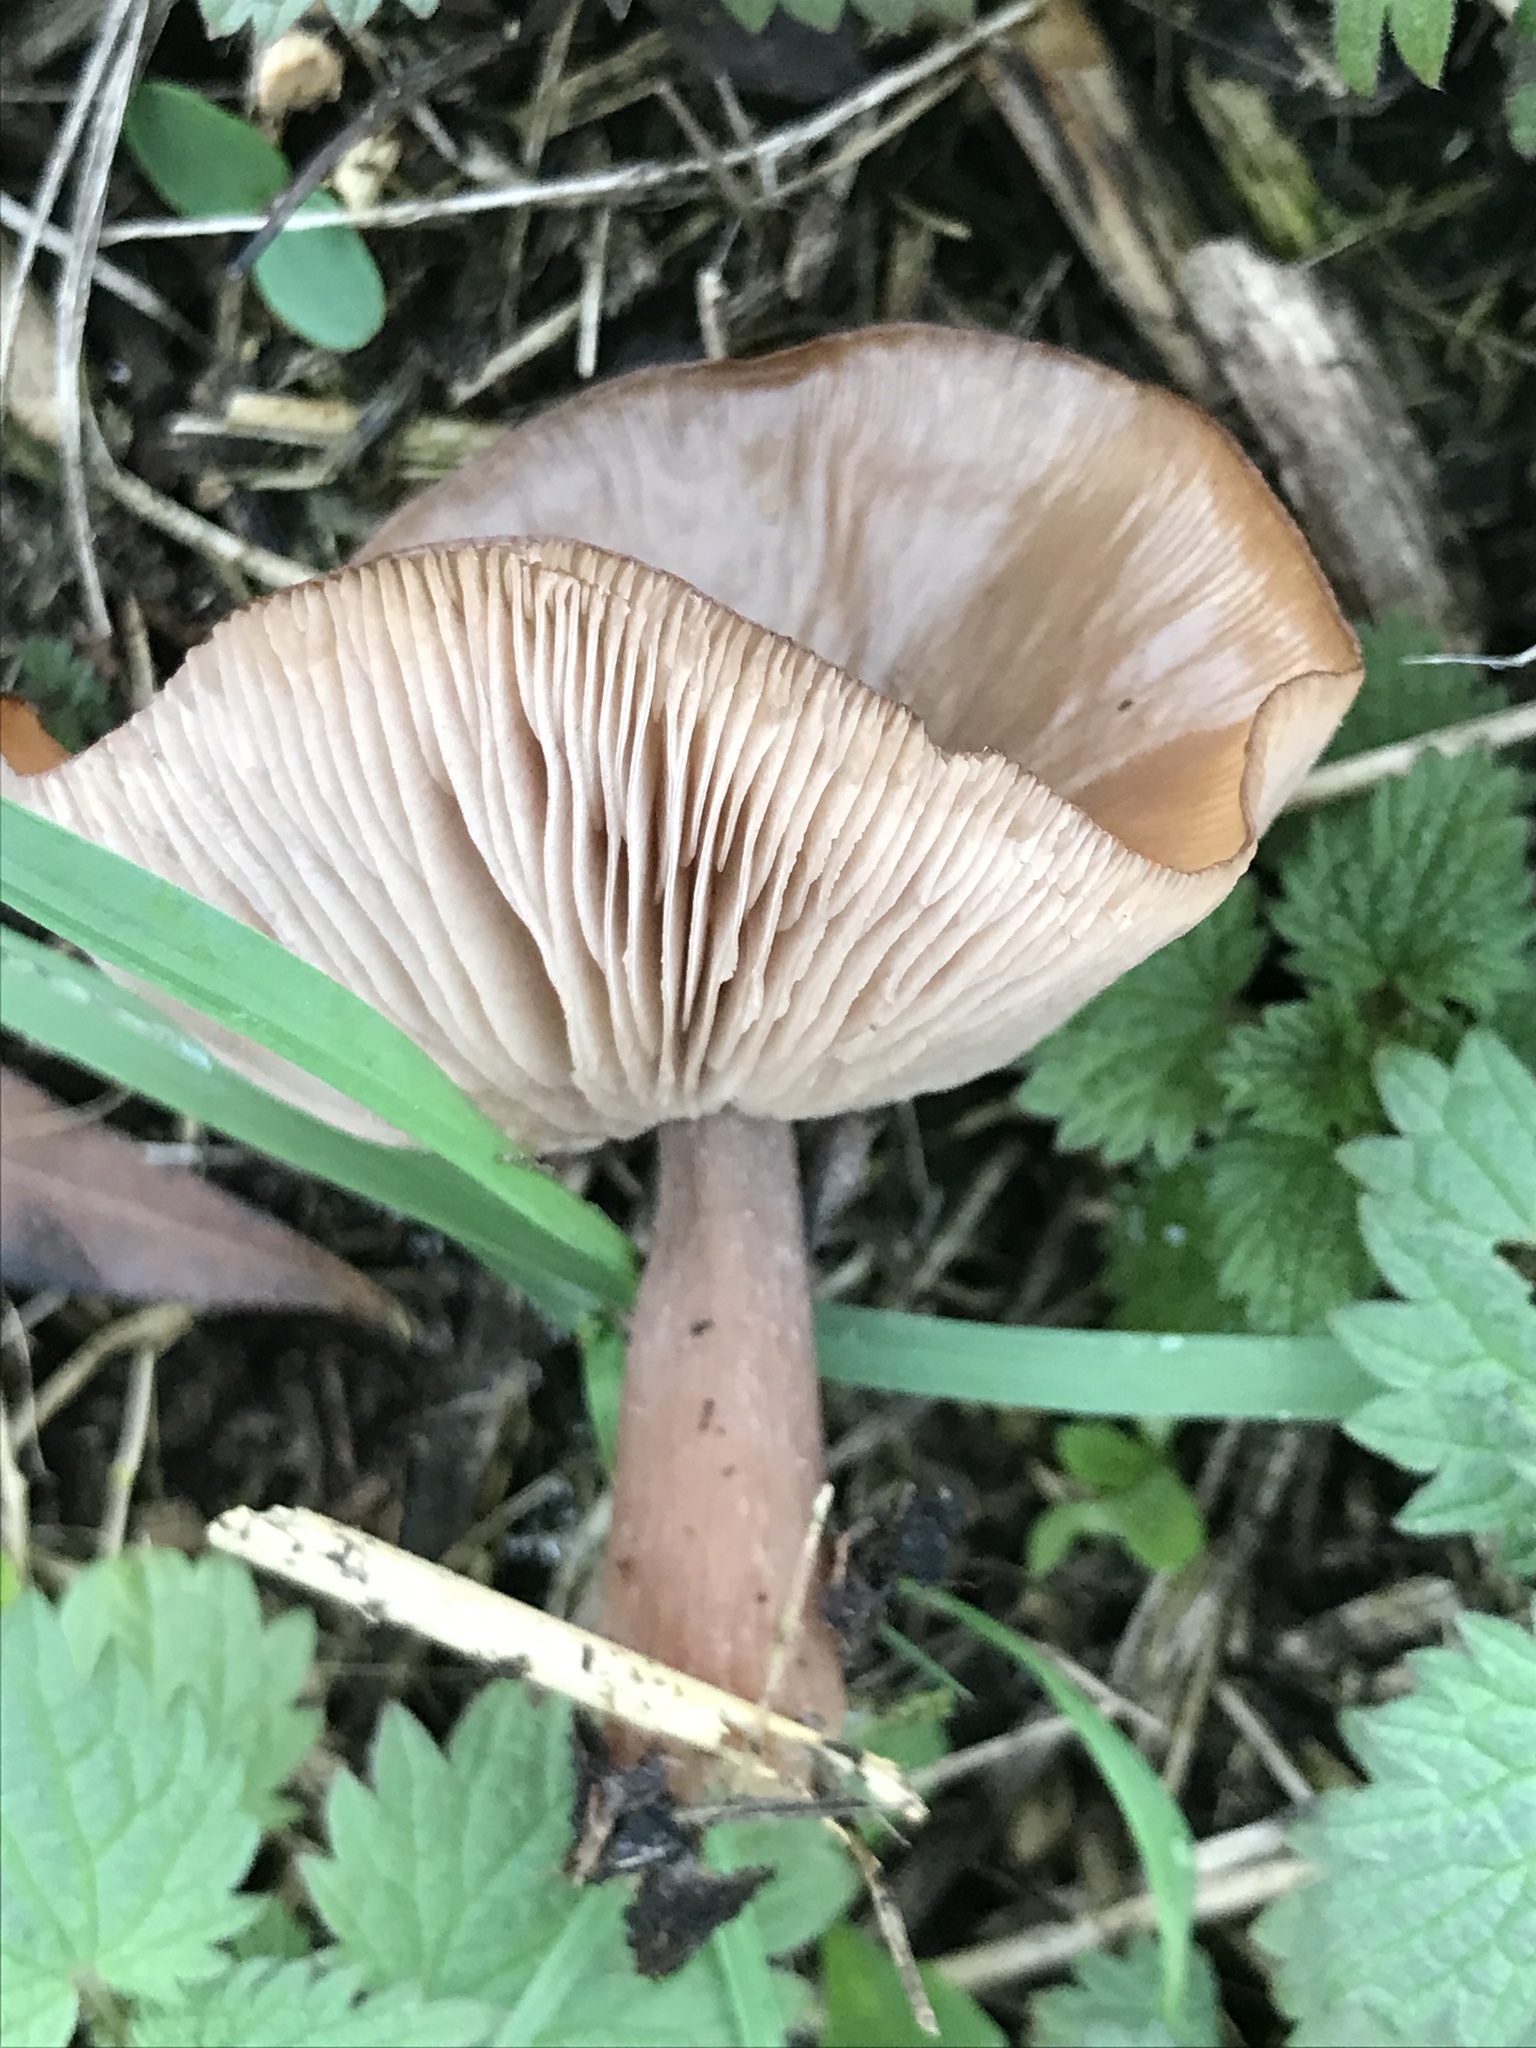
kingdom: Fungi
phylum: Basidiomycota
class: Agaricomycetes
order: Agaricales
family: Tricholomataceae
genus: Collybia
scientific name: Collybia
